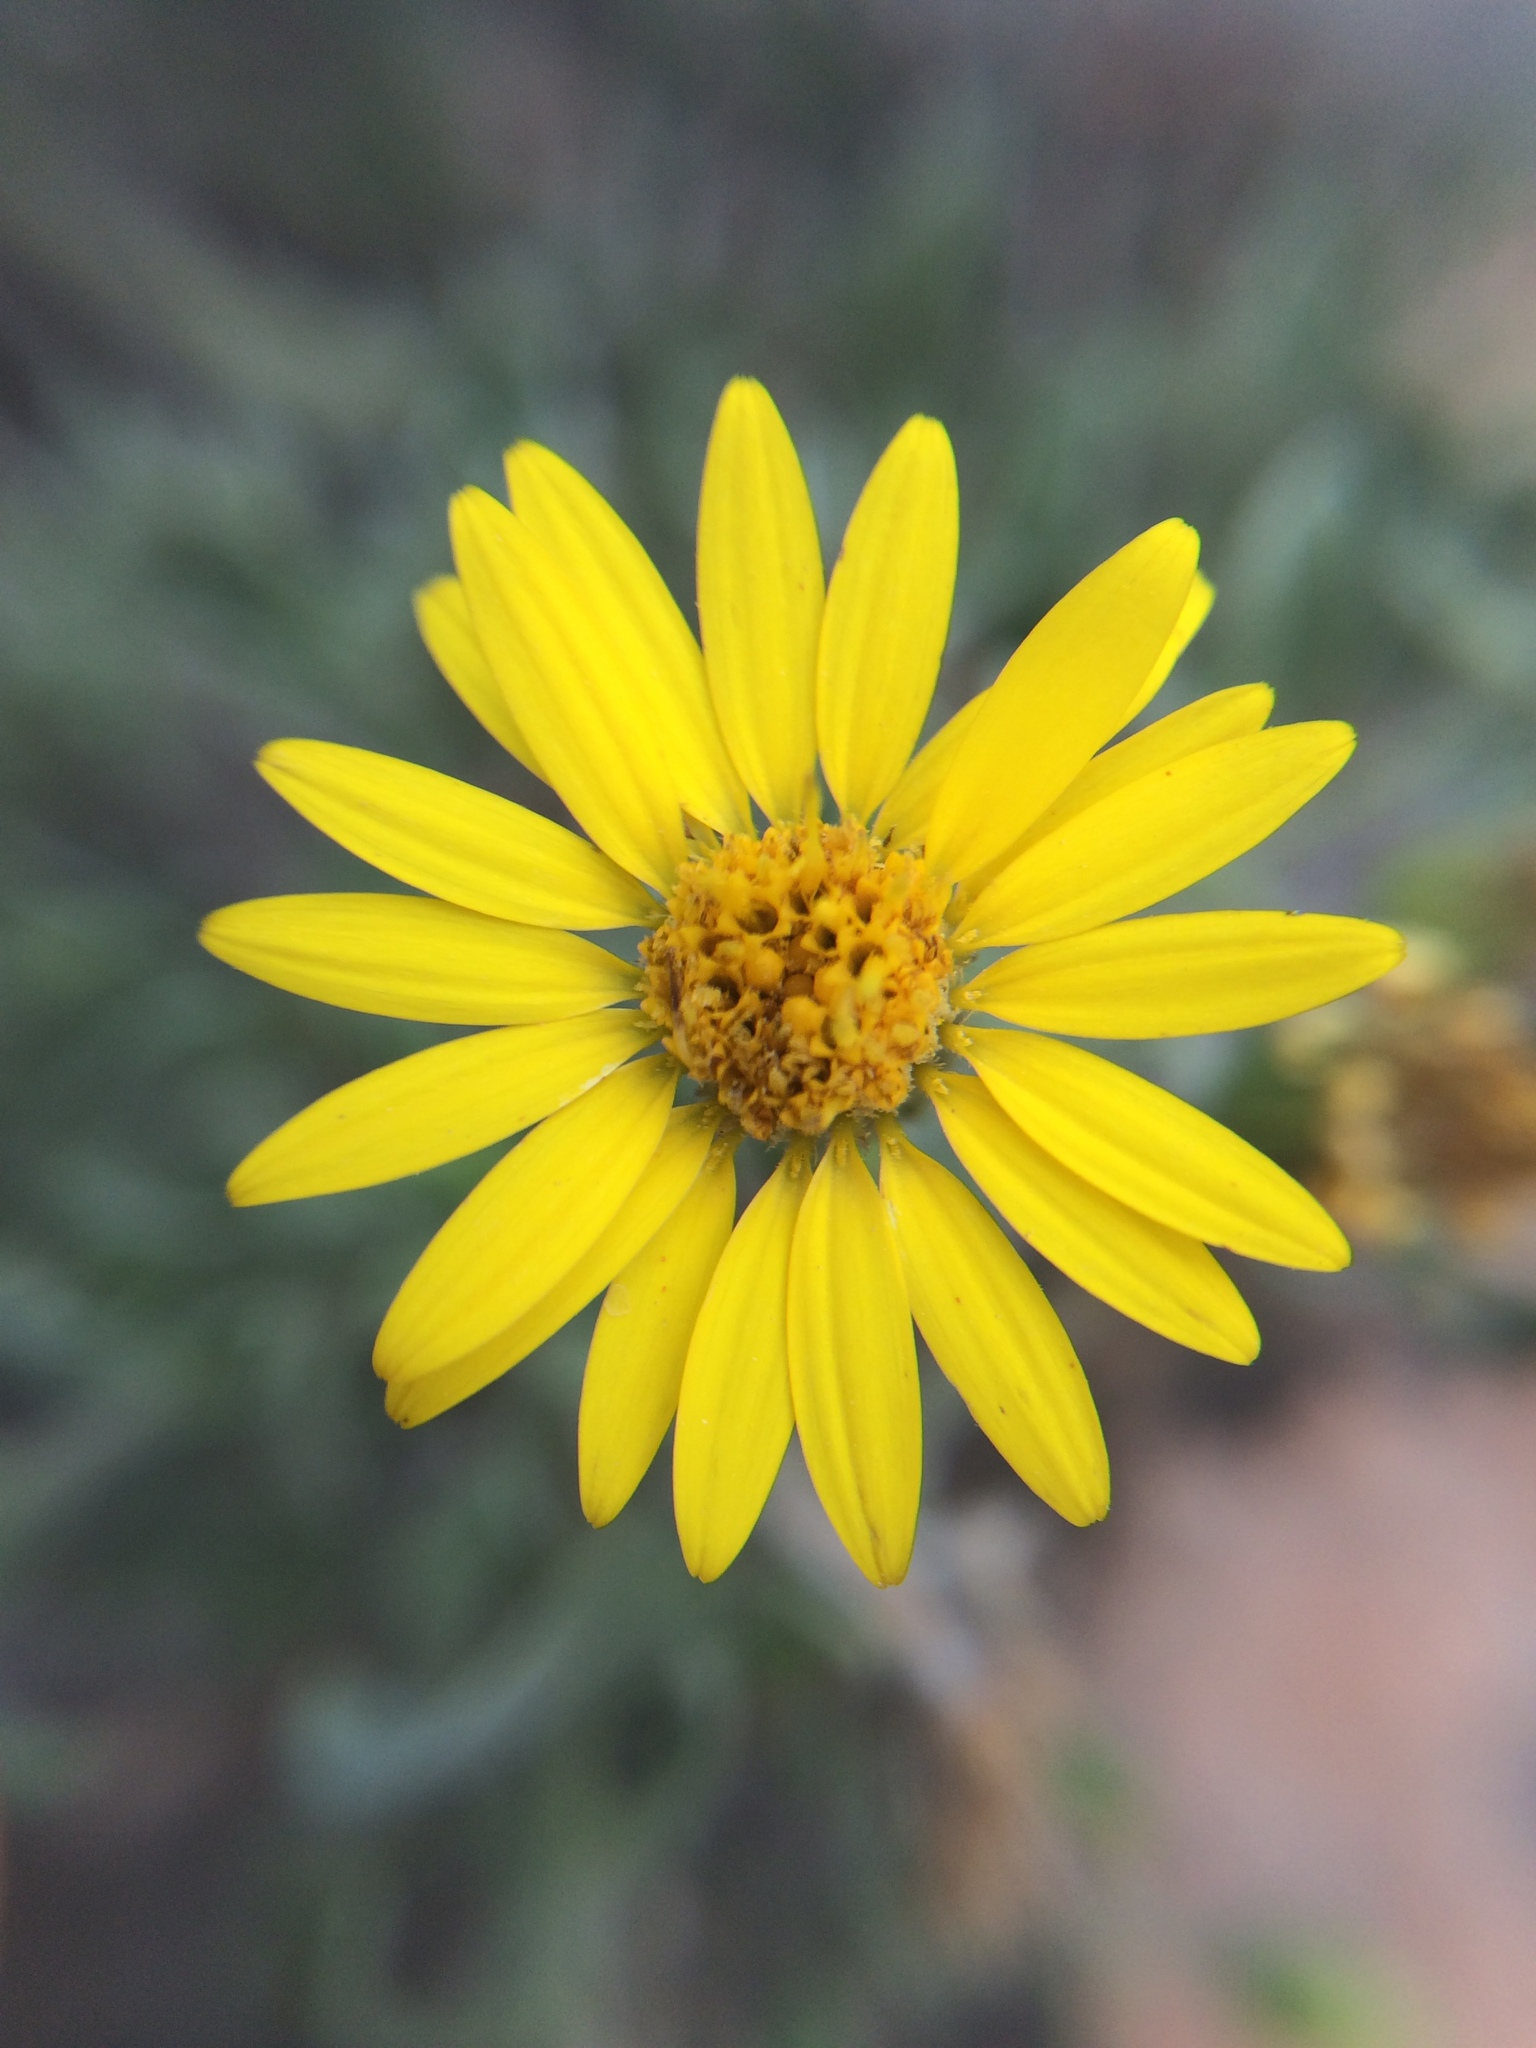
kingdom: Plantae
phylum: Tracheophyta
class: Magnoliopsida
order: Asterales
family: Asteraceae
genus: Heterotheca
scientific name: Heterotheca hirsutissima
